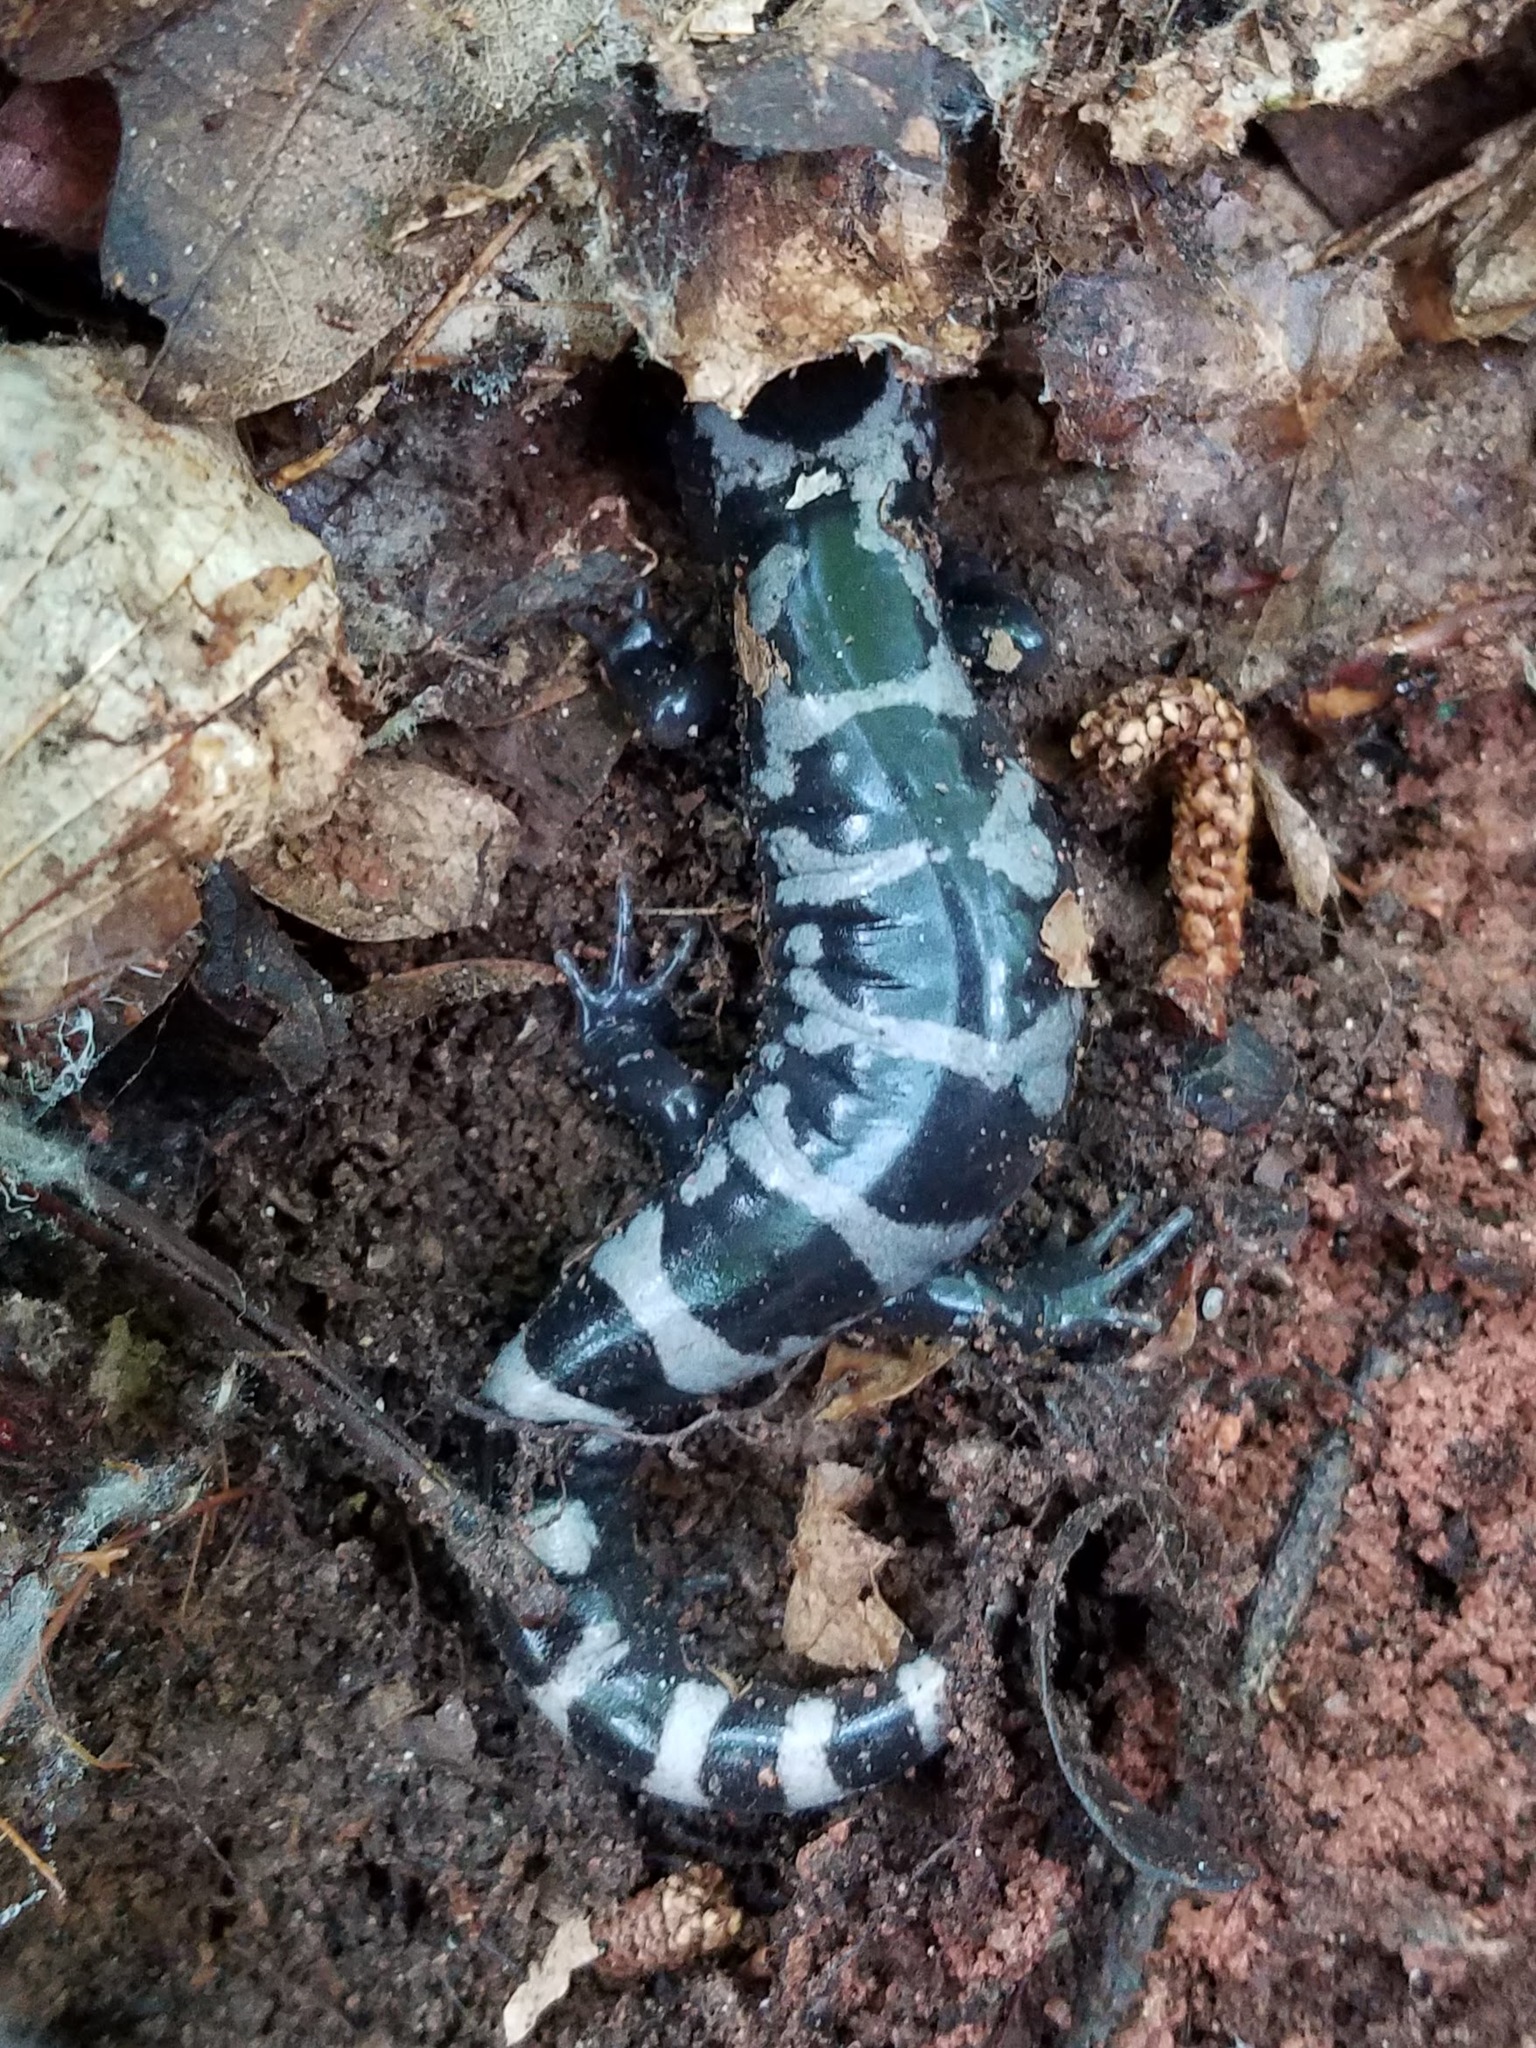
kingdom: Animalia
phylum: Chordata
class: Amphibia
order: Caudata
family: Ambystomatidae
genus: Ambystoma
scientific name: Ambystoma opacum
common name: Marbled salamander
